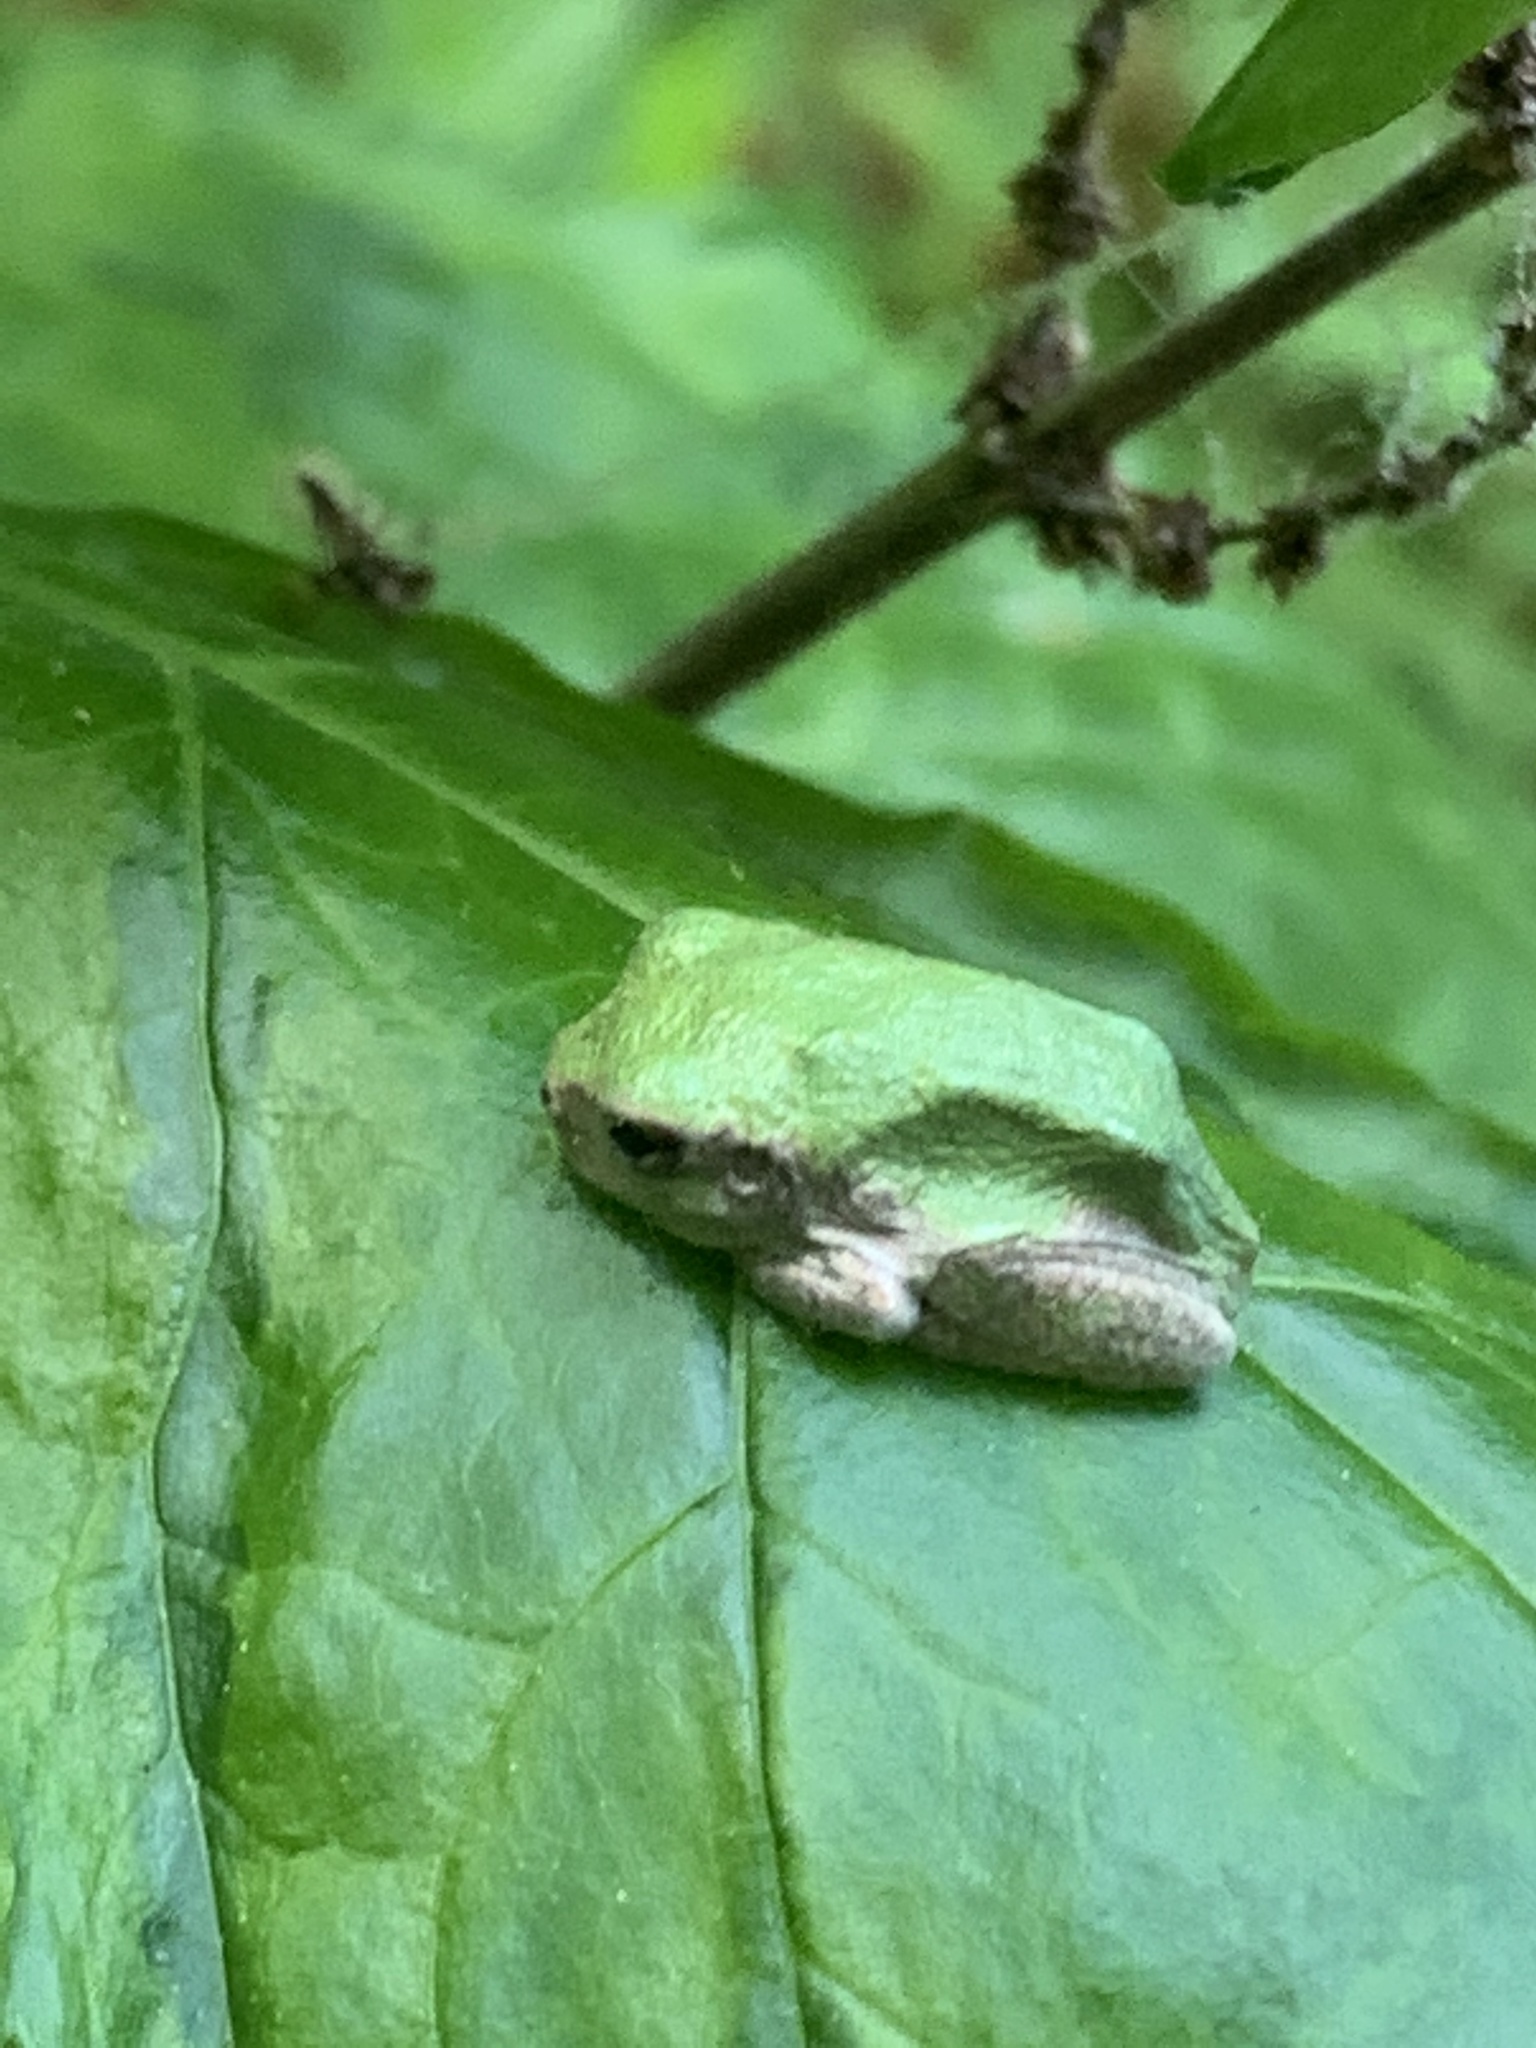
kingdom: Animalia
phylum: Chordata
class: Amphibia
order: Anura
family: Hylidae
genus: Hyla
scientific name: Hyla
